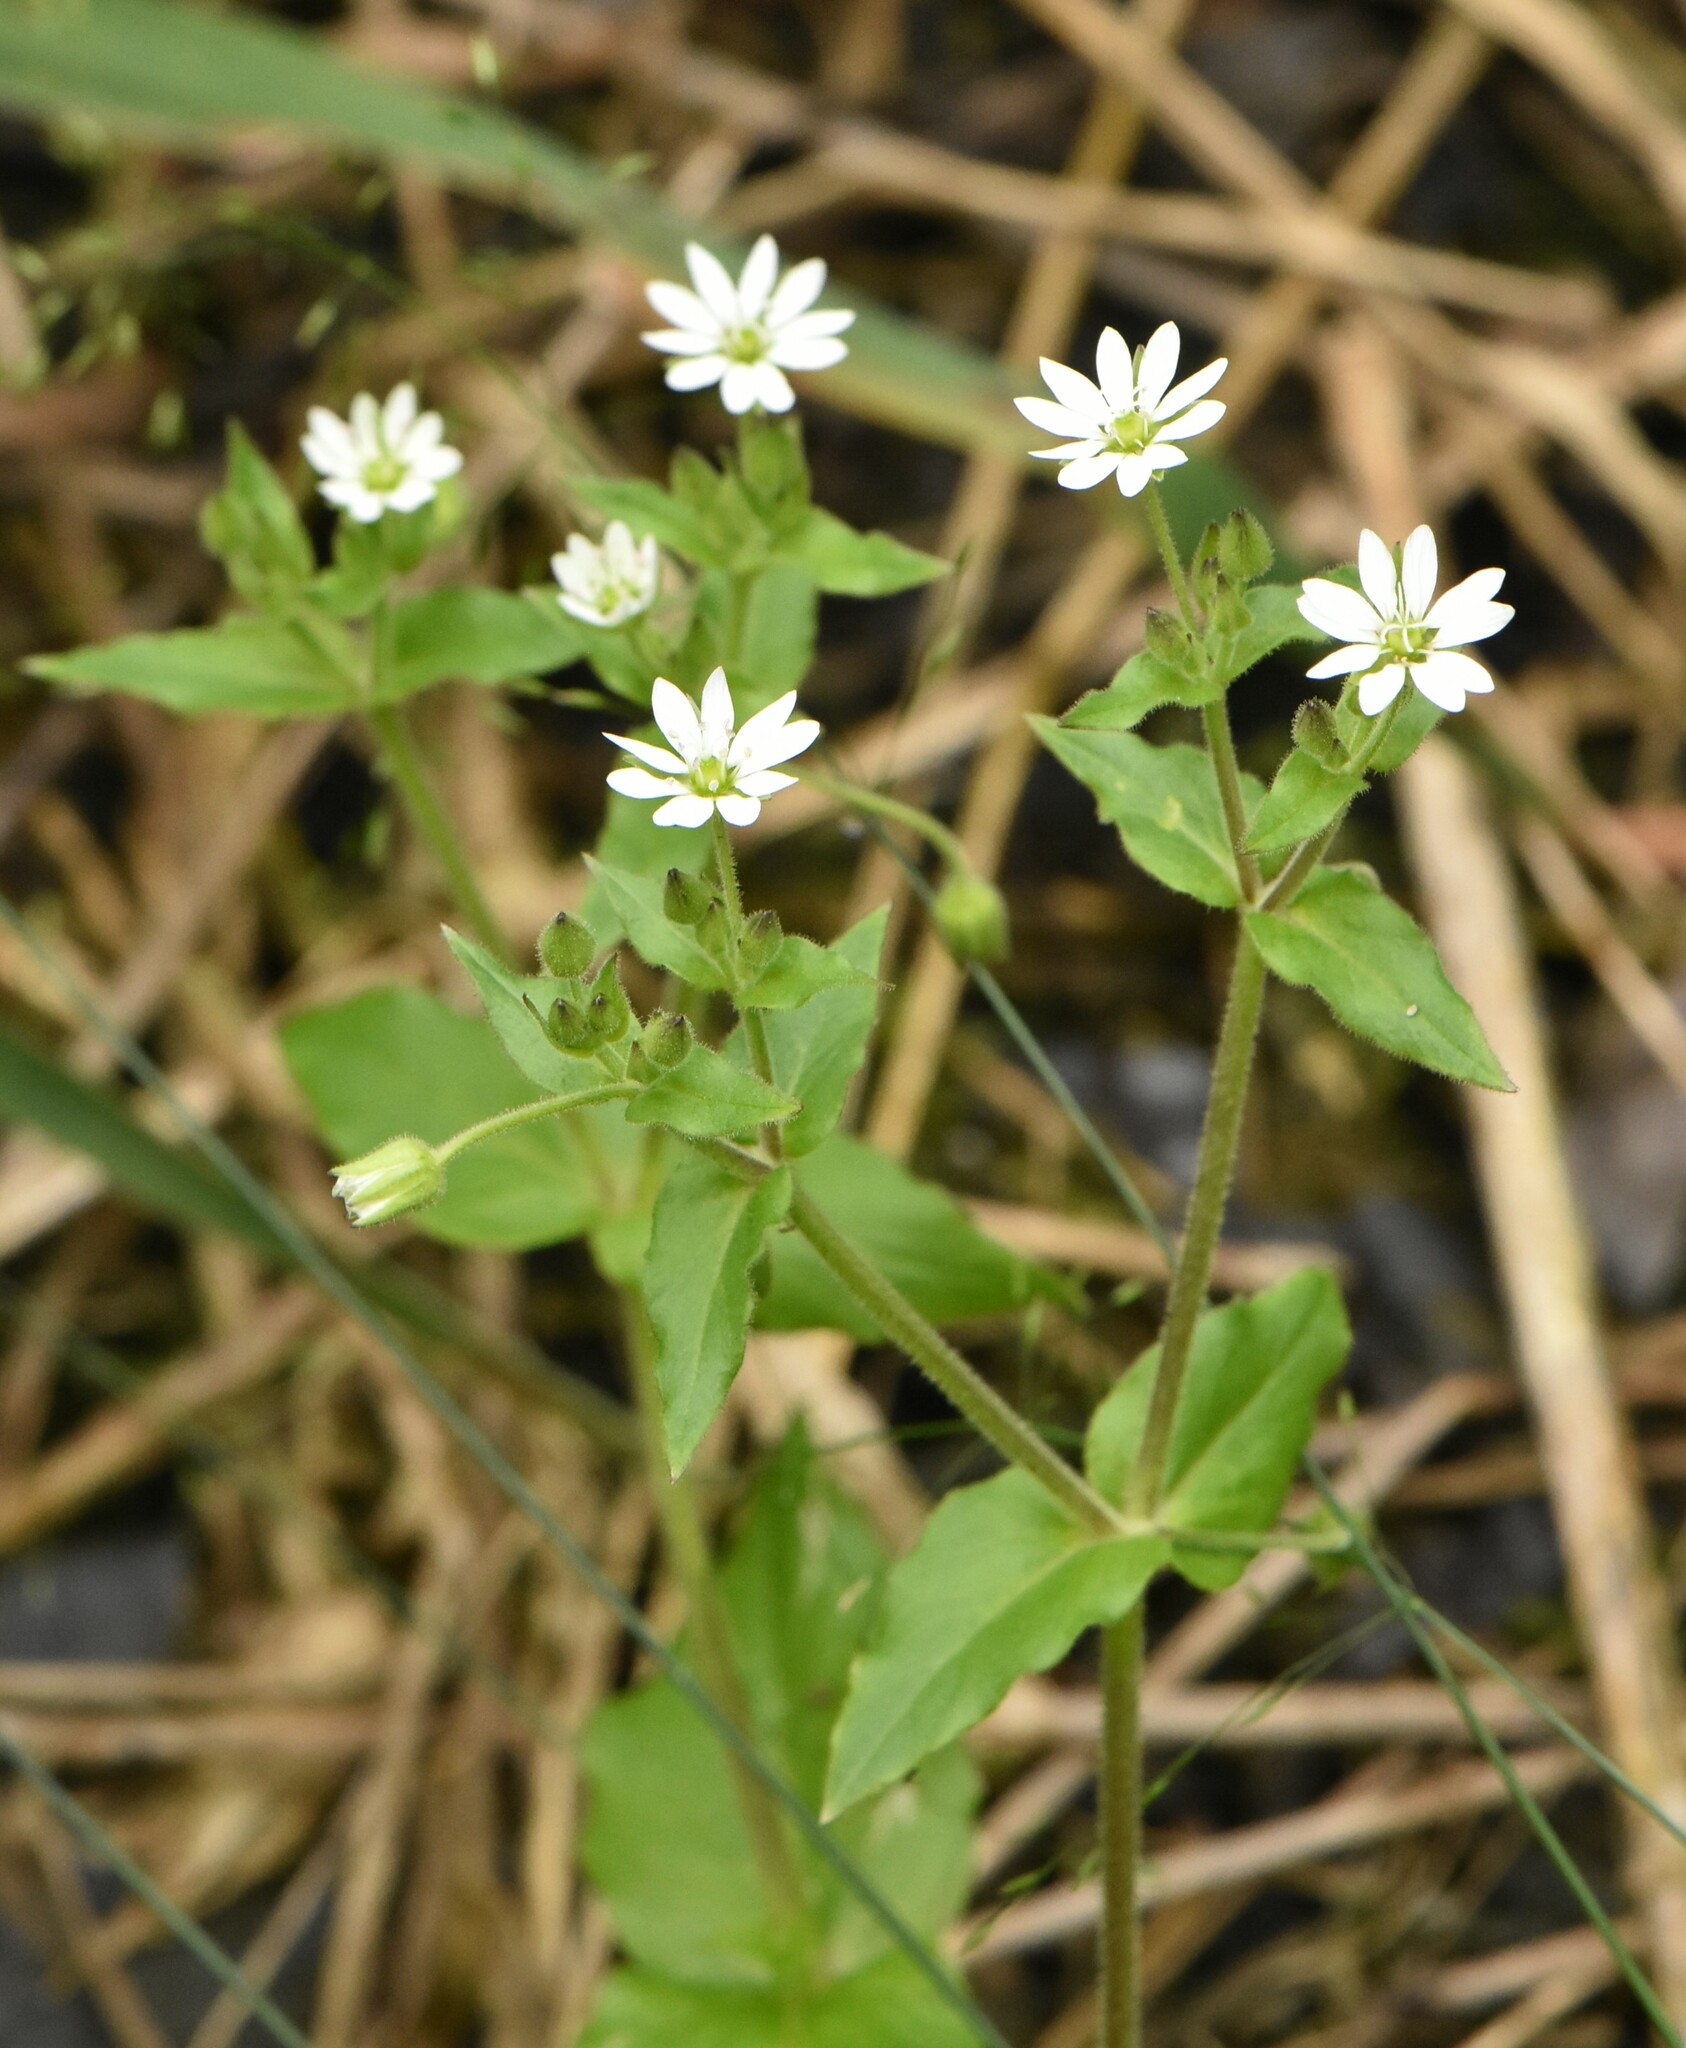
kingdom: Plantae
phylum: Tracheophyta
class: Magnoliopsida
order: Caryophyllales
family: Caryophyllaceae
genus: Stellaria
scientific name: Stellaria aquatica
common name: Water chickweed
